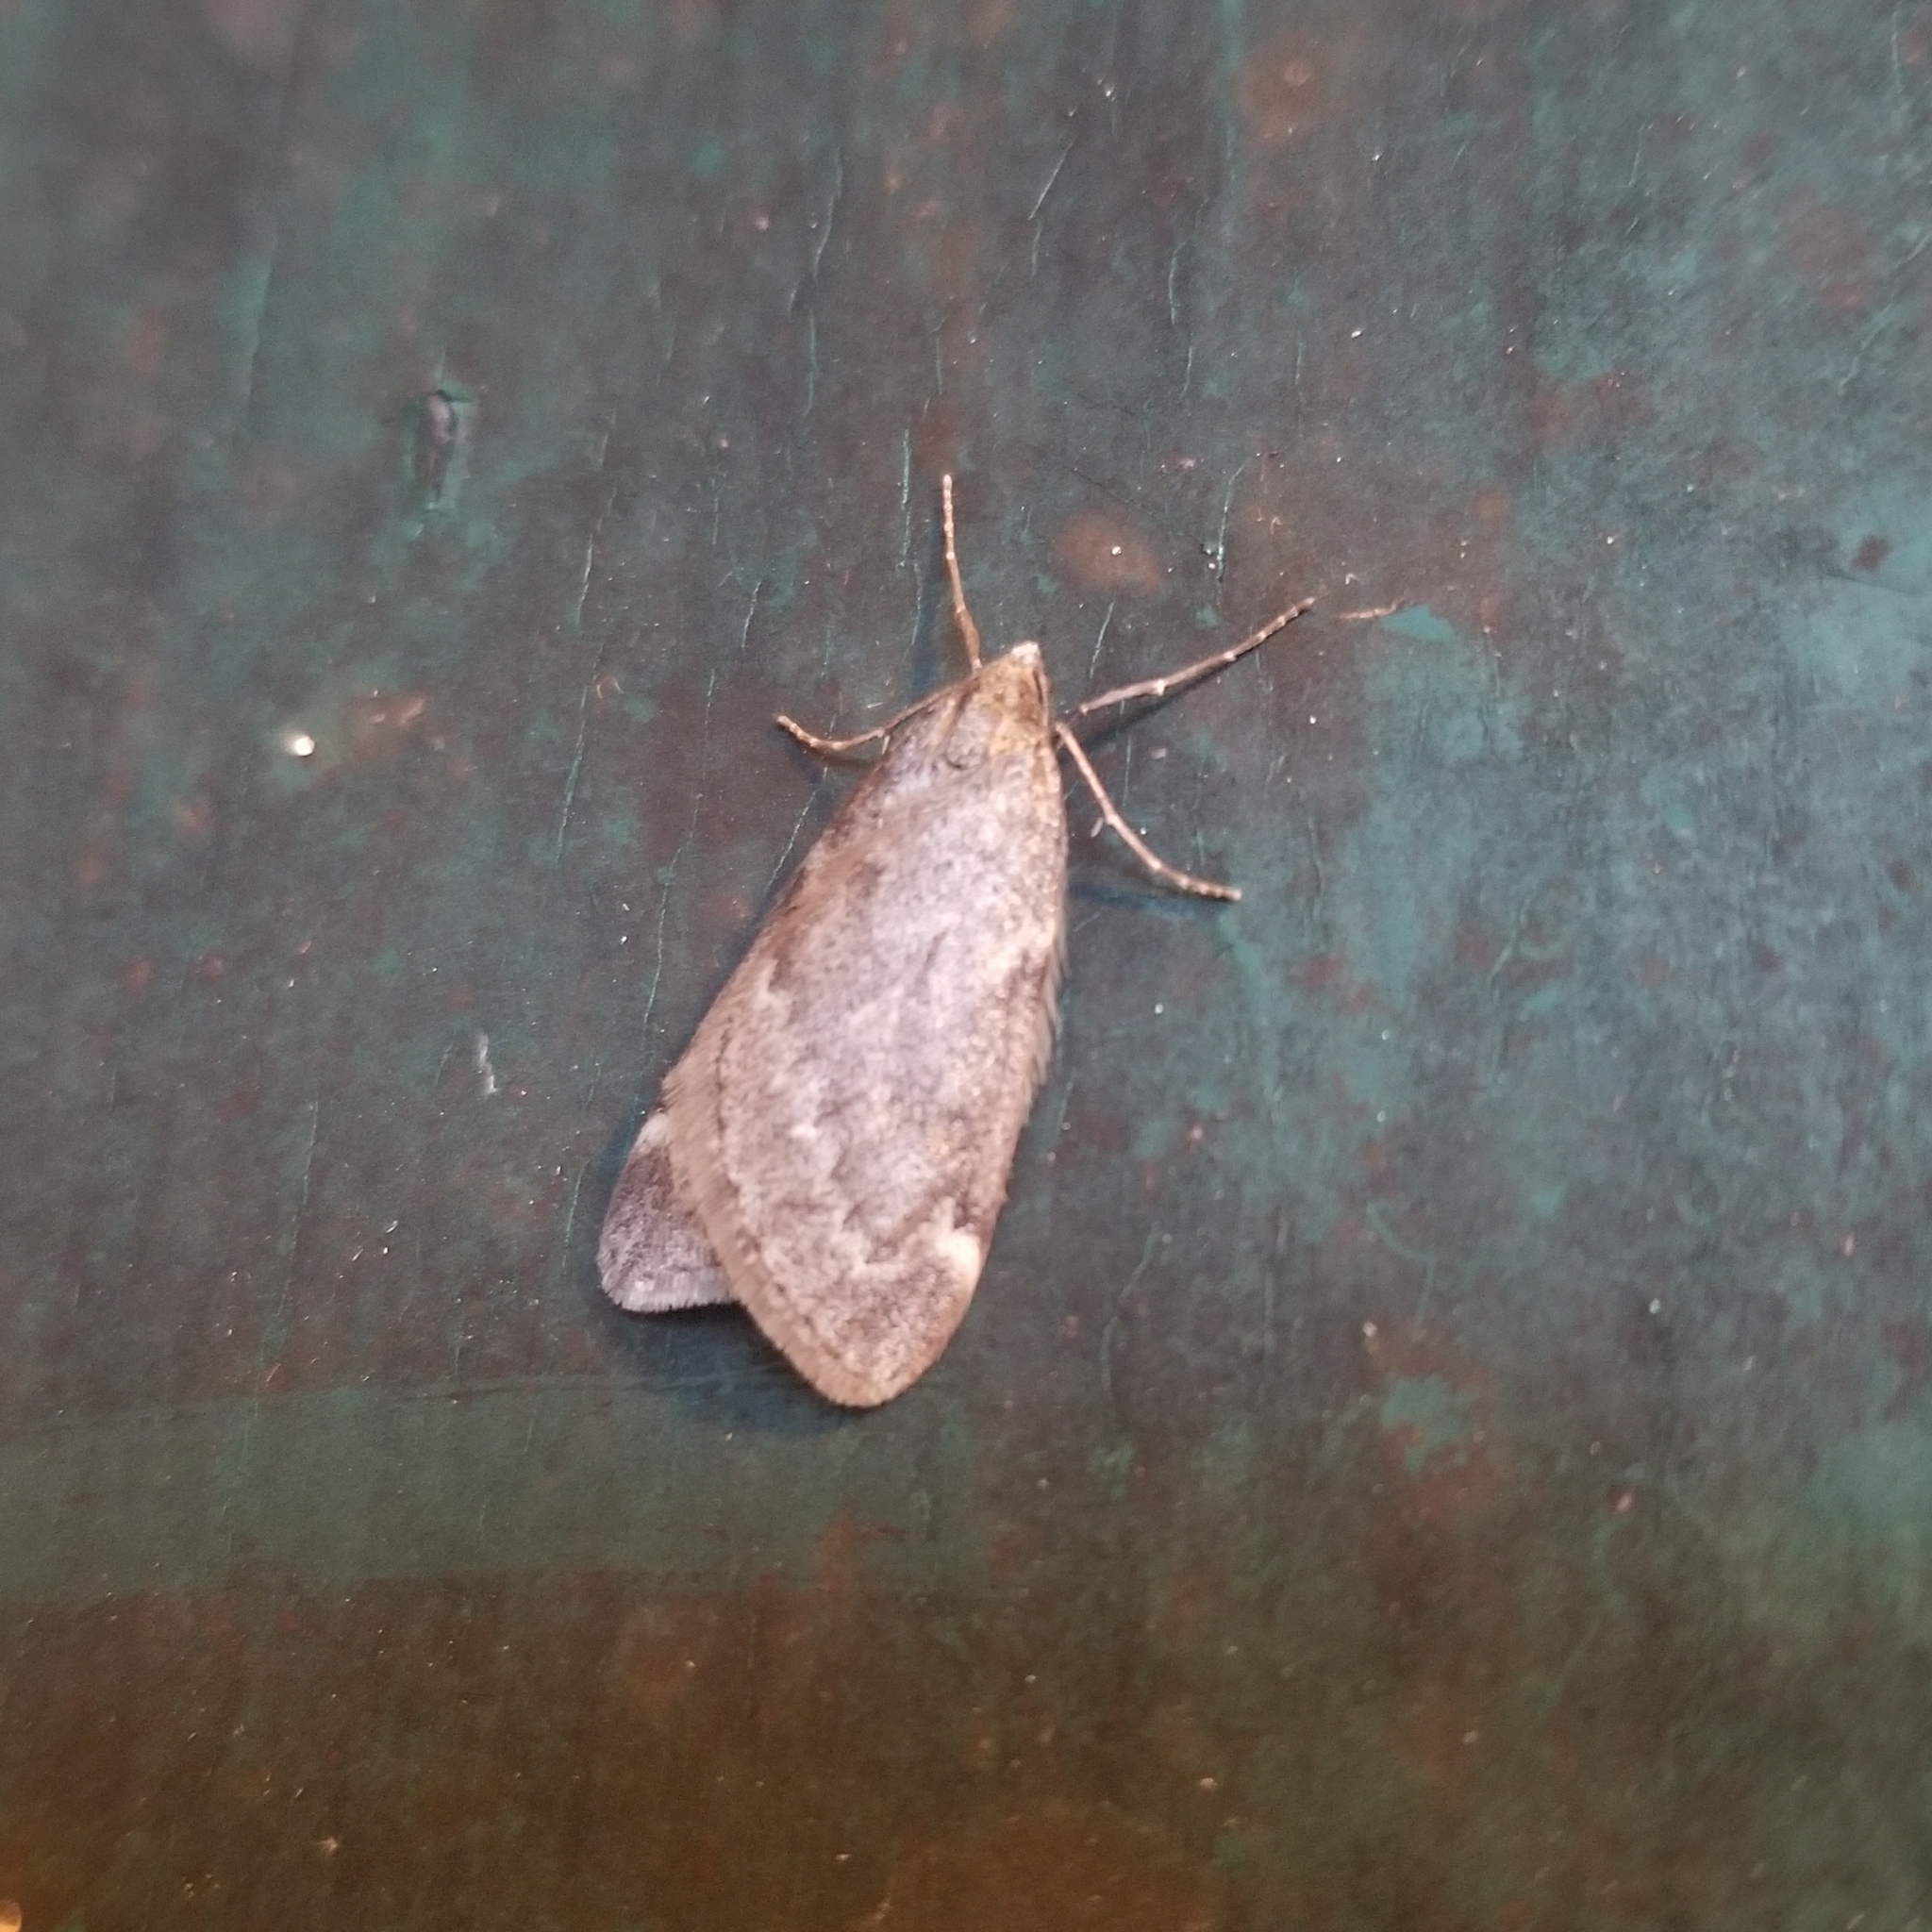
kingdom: Animalia
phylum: Arthropoda
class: Insecta
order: Lepidoptera
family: Geometridae
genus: Alsophila
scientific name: Alsophila pometaria
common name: Fall cankerworm
